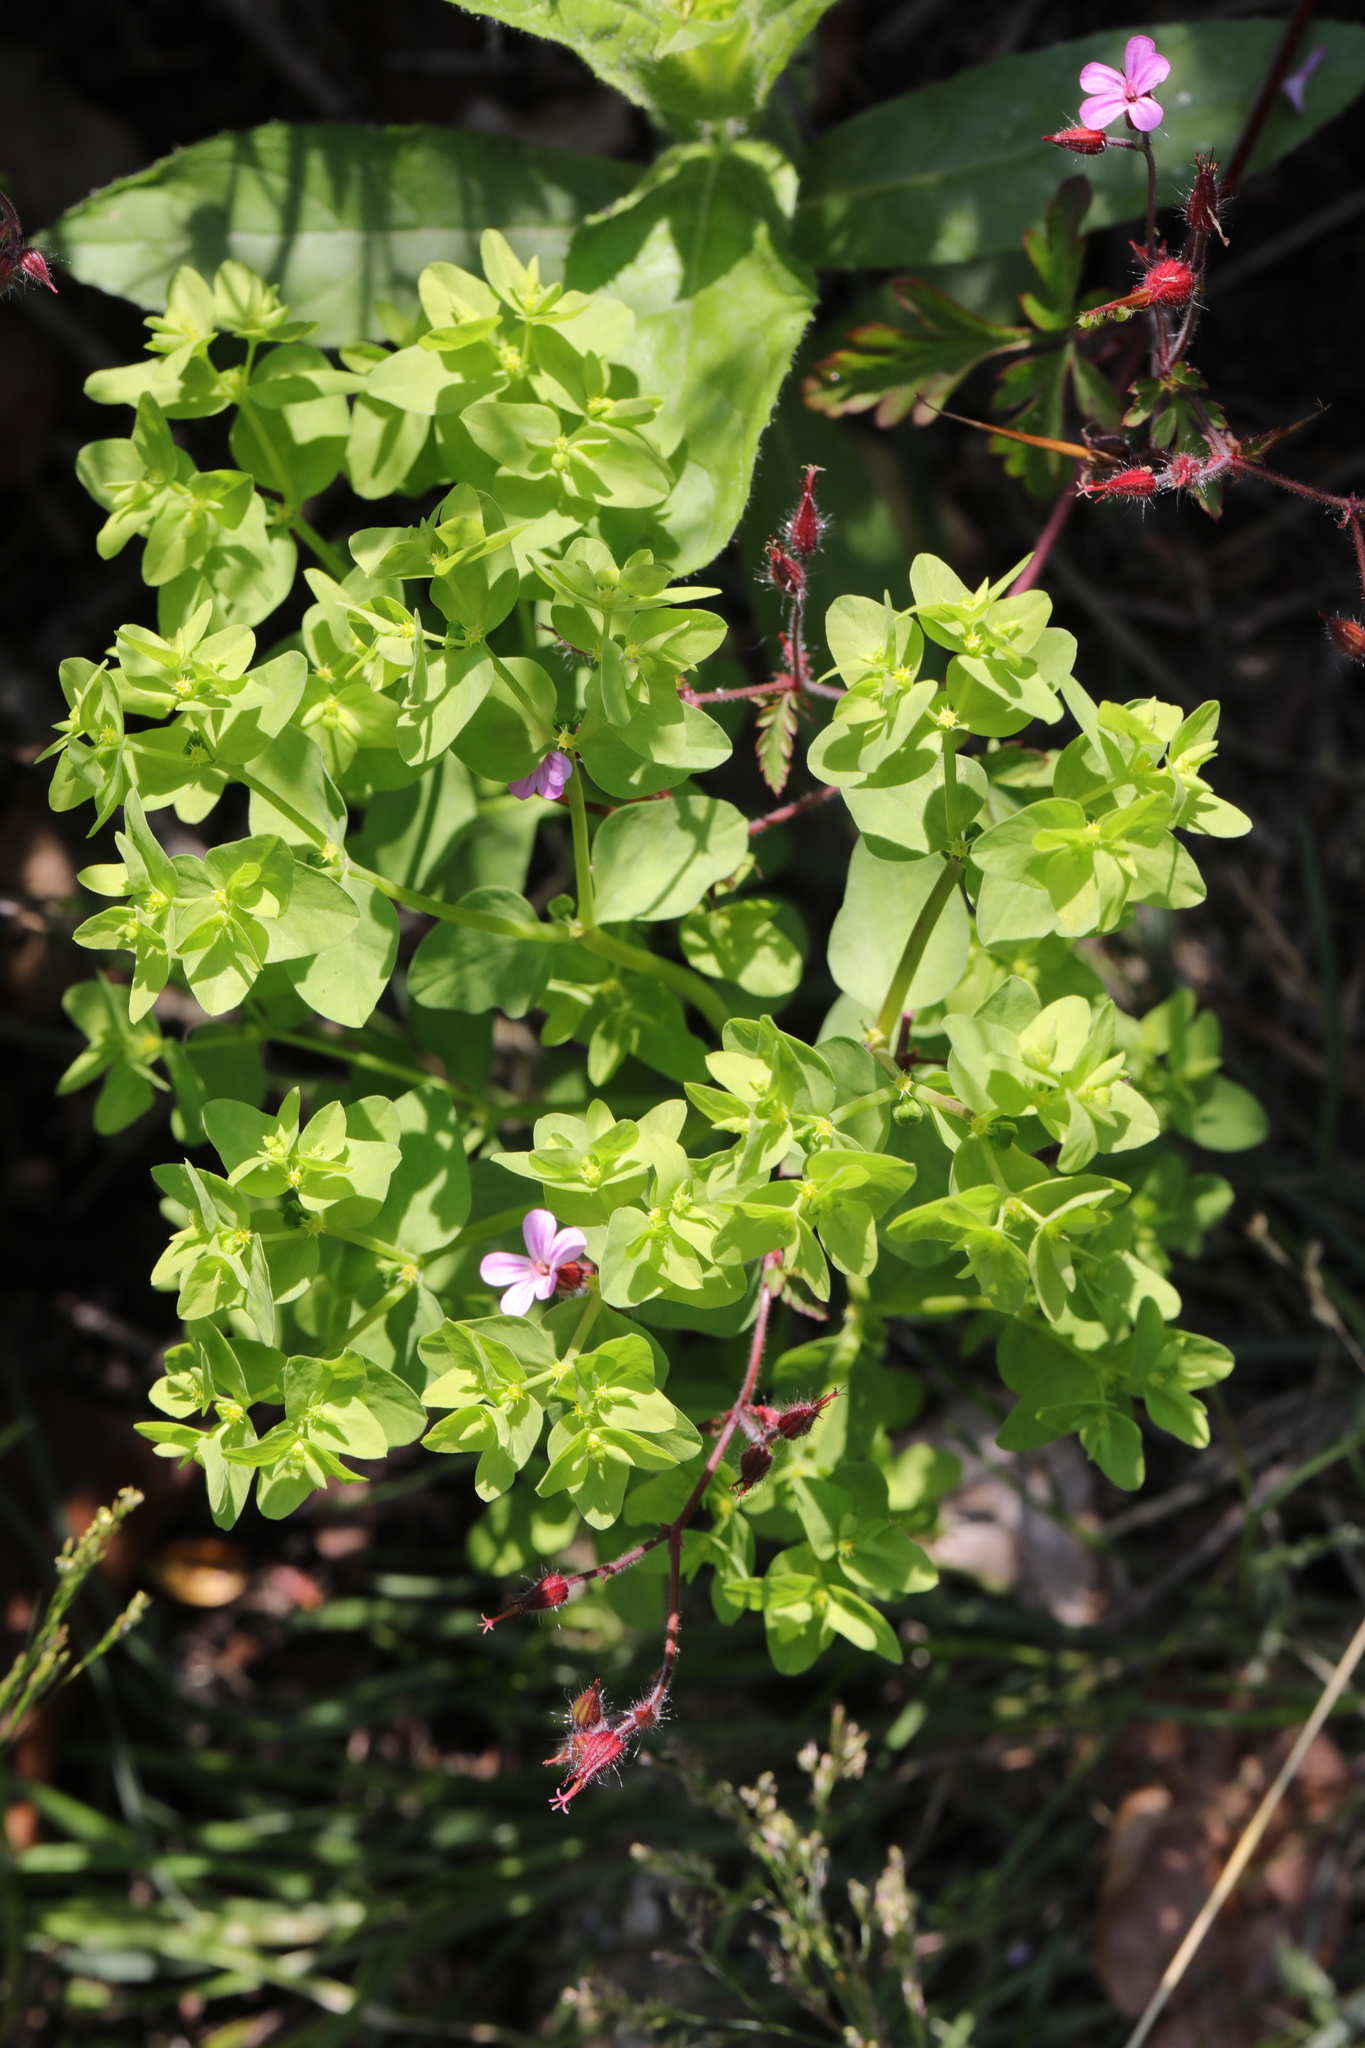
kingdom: Plantae
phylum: Tracheophyta
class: Magnoliopsida
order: Malpighiales
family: Euphorbiaceae
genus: Euphorbia
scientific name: Euphorbia peplus
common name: Petty spurge
